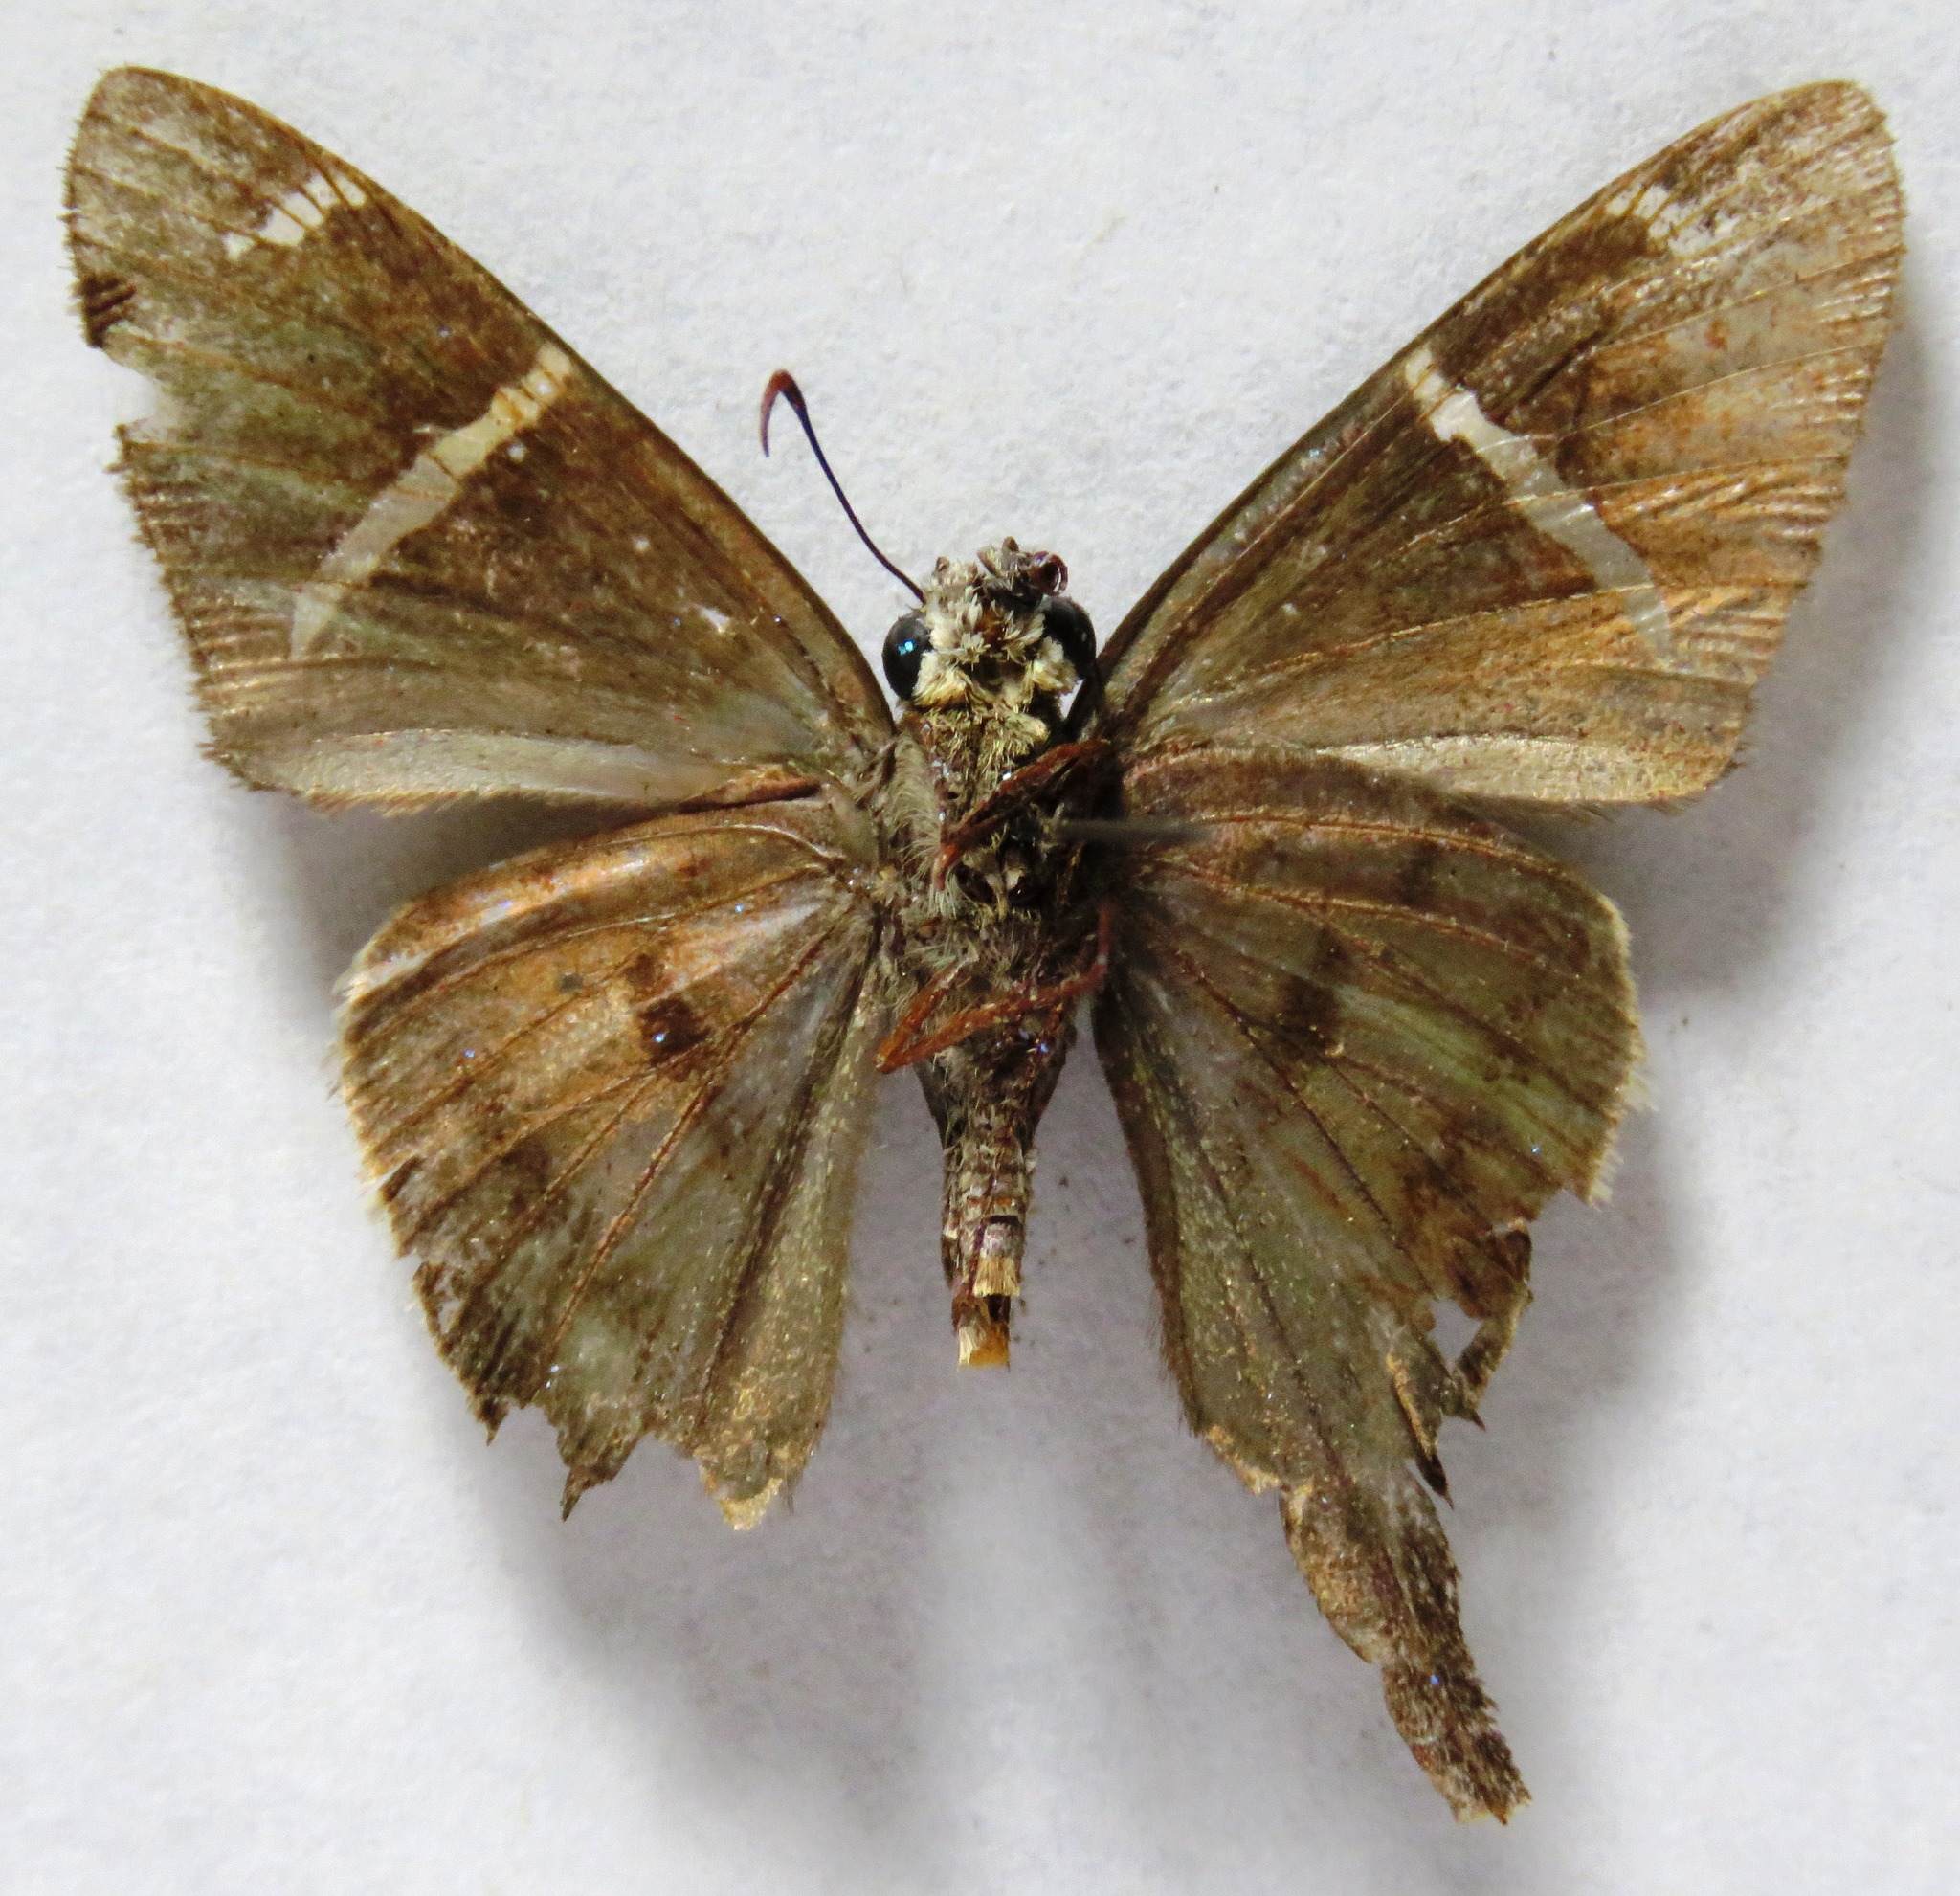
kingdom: Animalia
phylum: Arthropoda
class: Insecta
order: Lepidoptera
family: Hesperiidae
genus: Urbanus
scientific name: Urbanus tanna
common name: Tanna longtail
